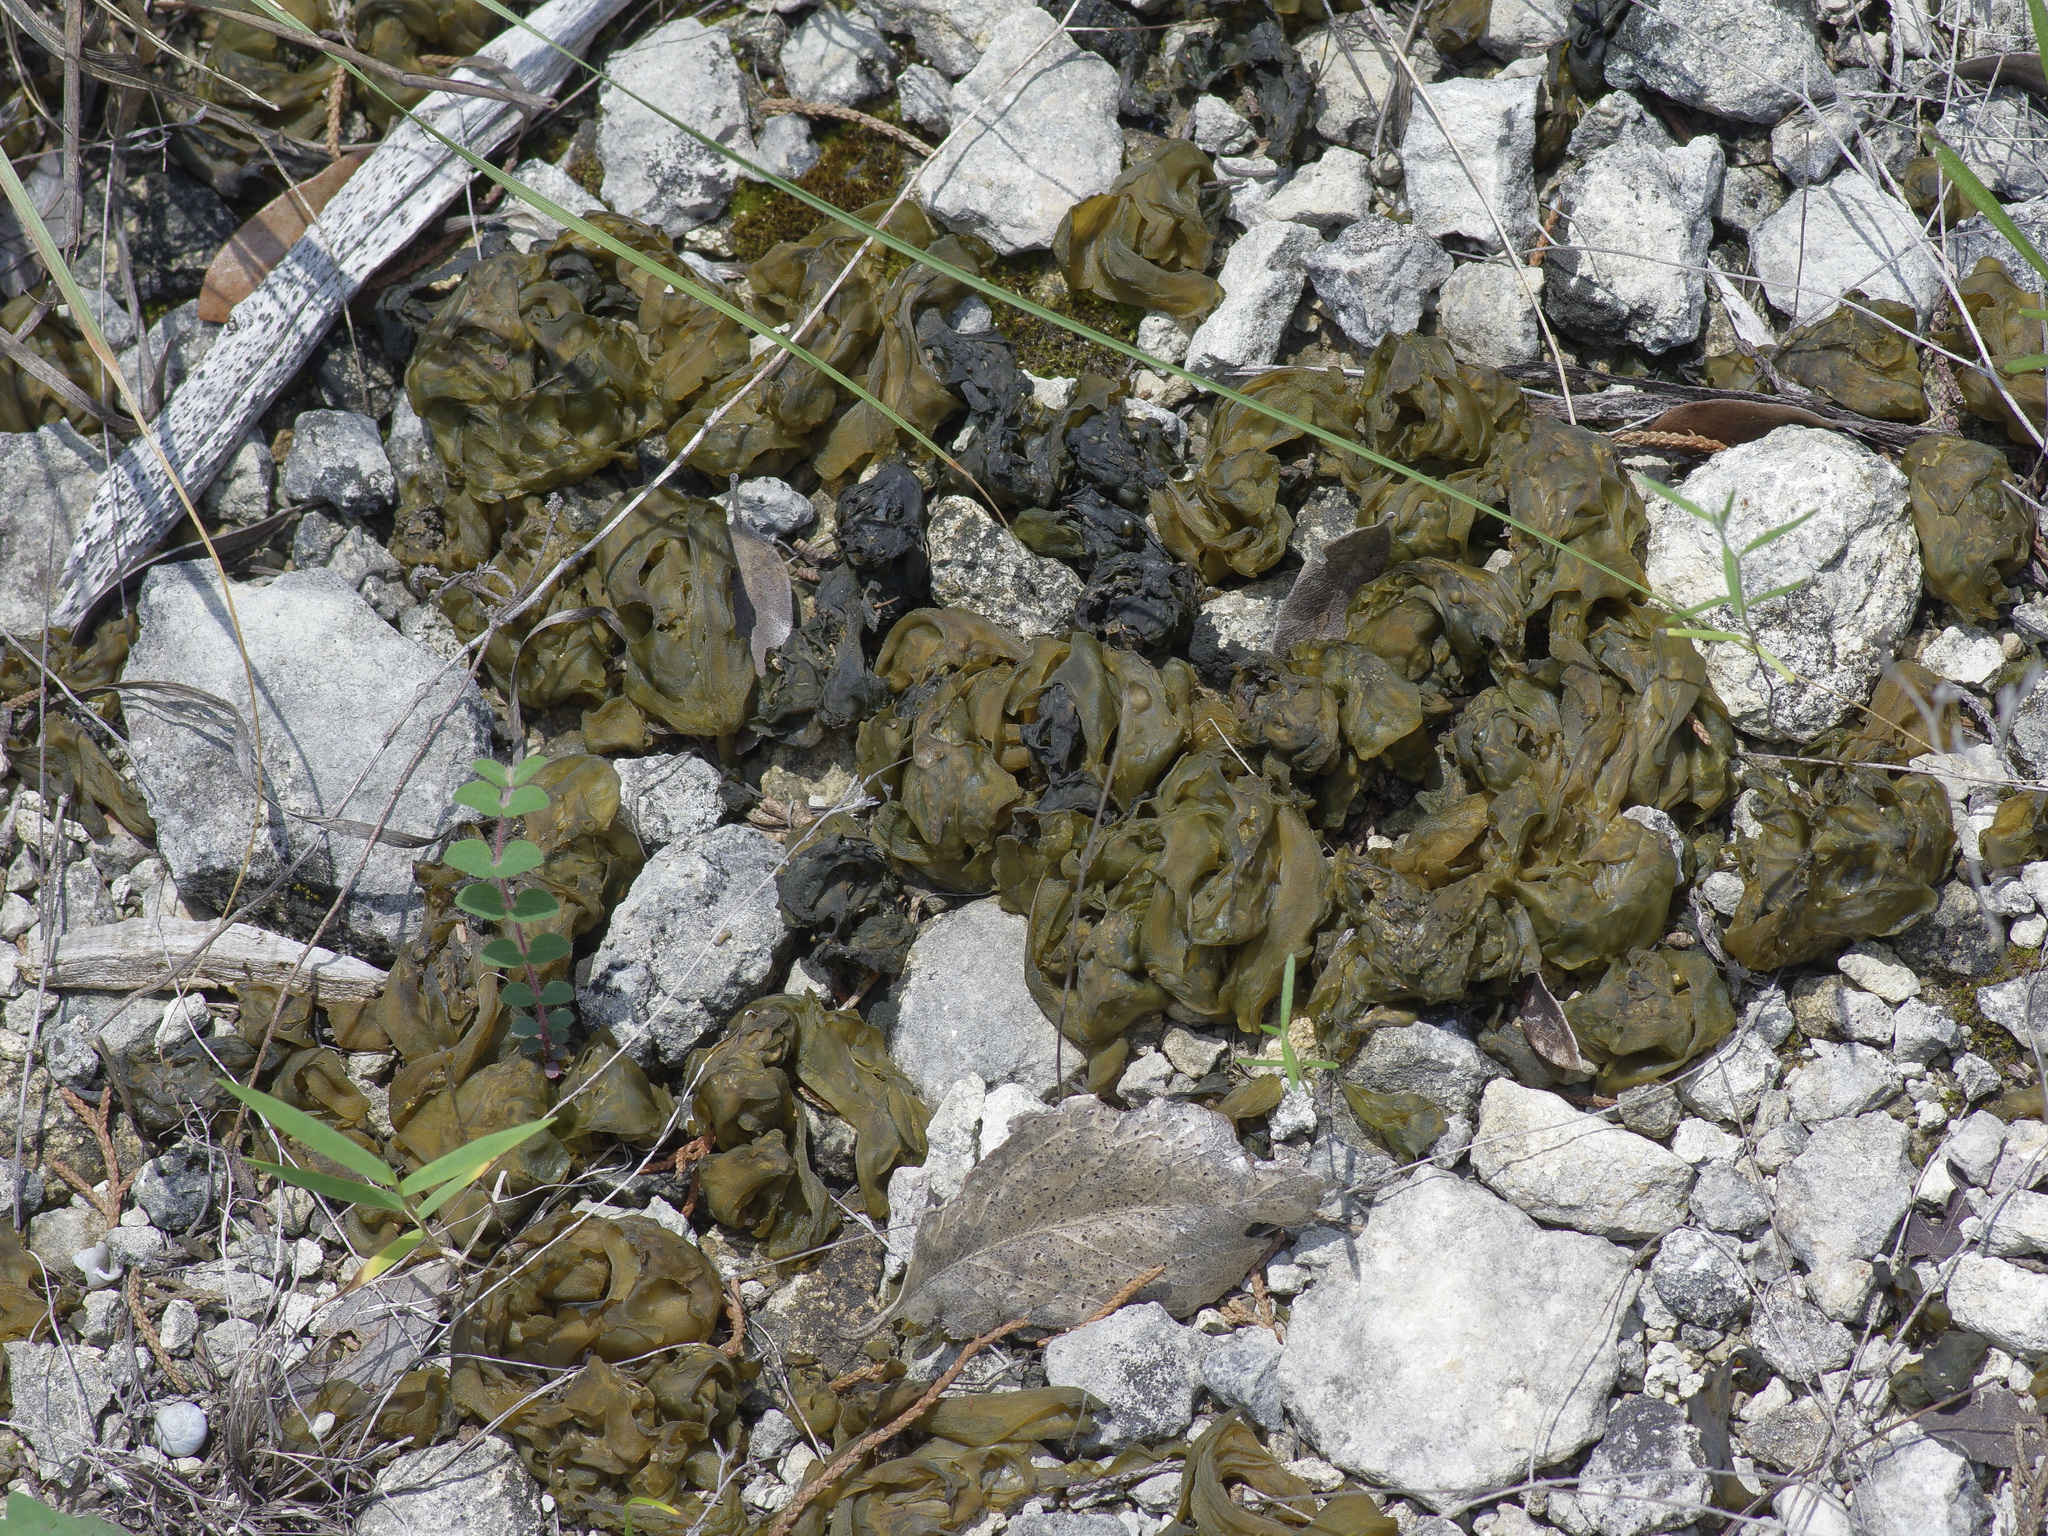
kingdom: Bacteria
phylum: Cyanobacteria
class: Cyanobacteriia
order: Cyanobacteriales
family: Nostocaceae
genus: Nostoc
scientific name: Nostoc commune
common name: Star jelly
